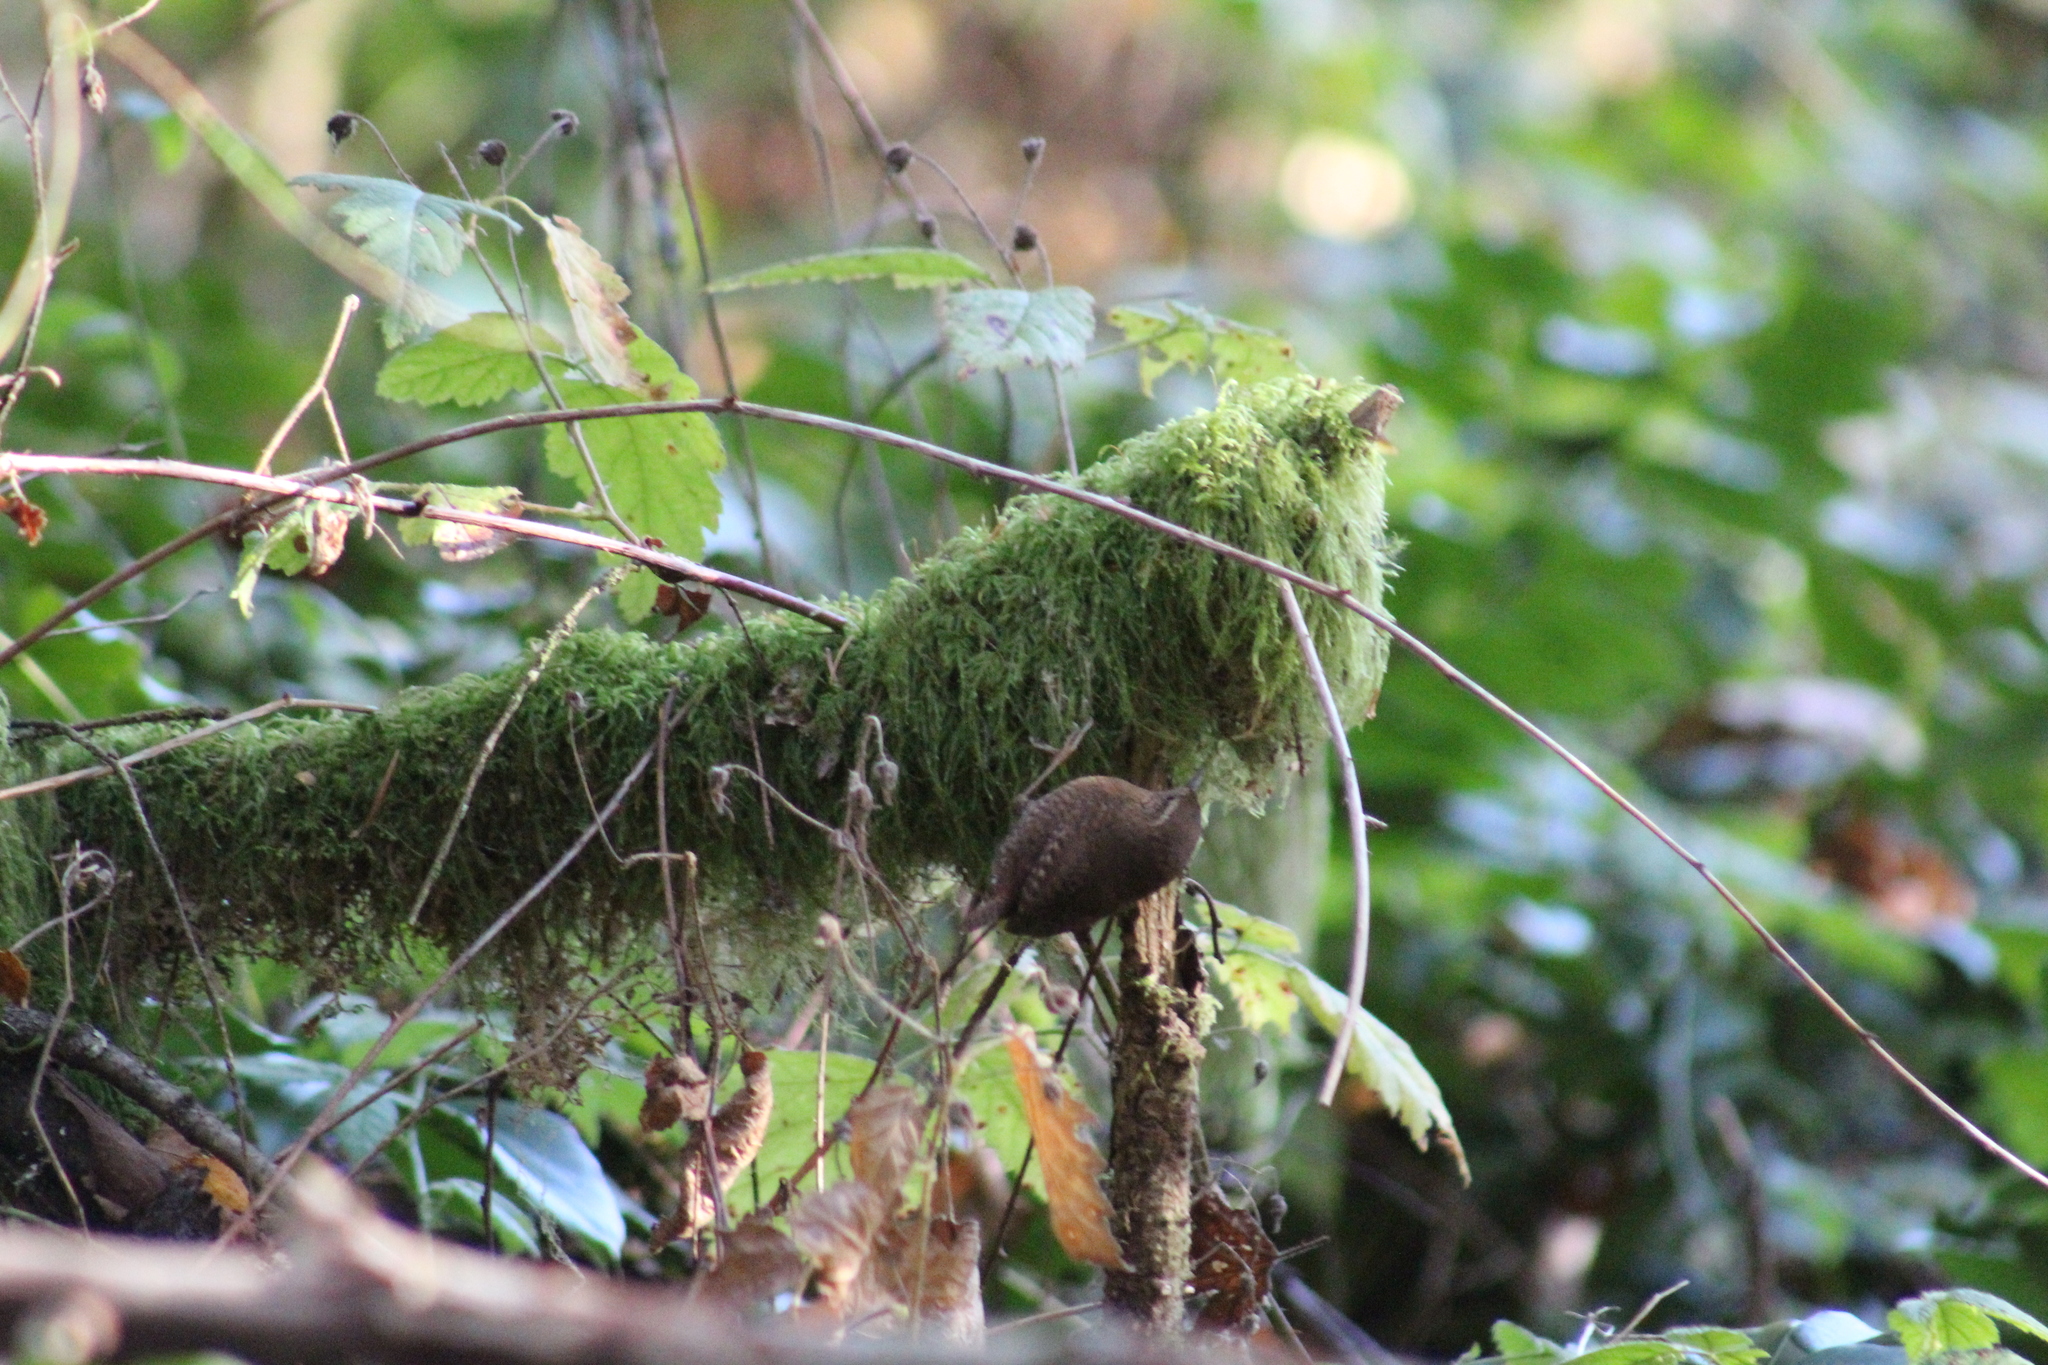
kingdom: Animalia
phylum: Chordata
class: Aves
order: Passeriformes
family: Troglodytidae
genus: Troglodytes
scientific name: Troglodytes pacificus
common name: Pacific wren
